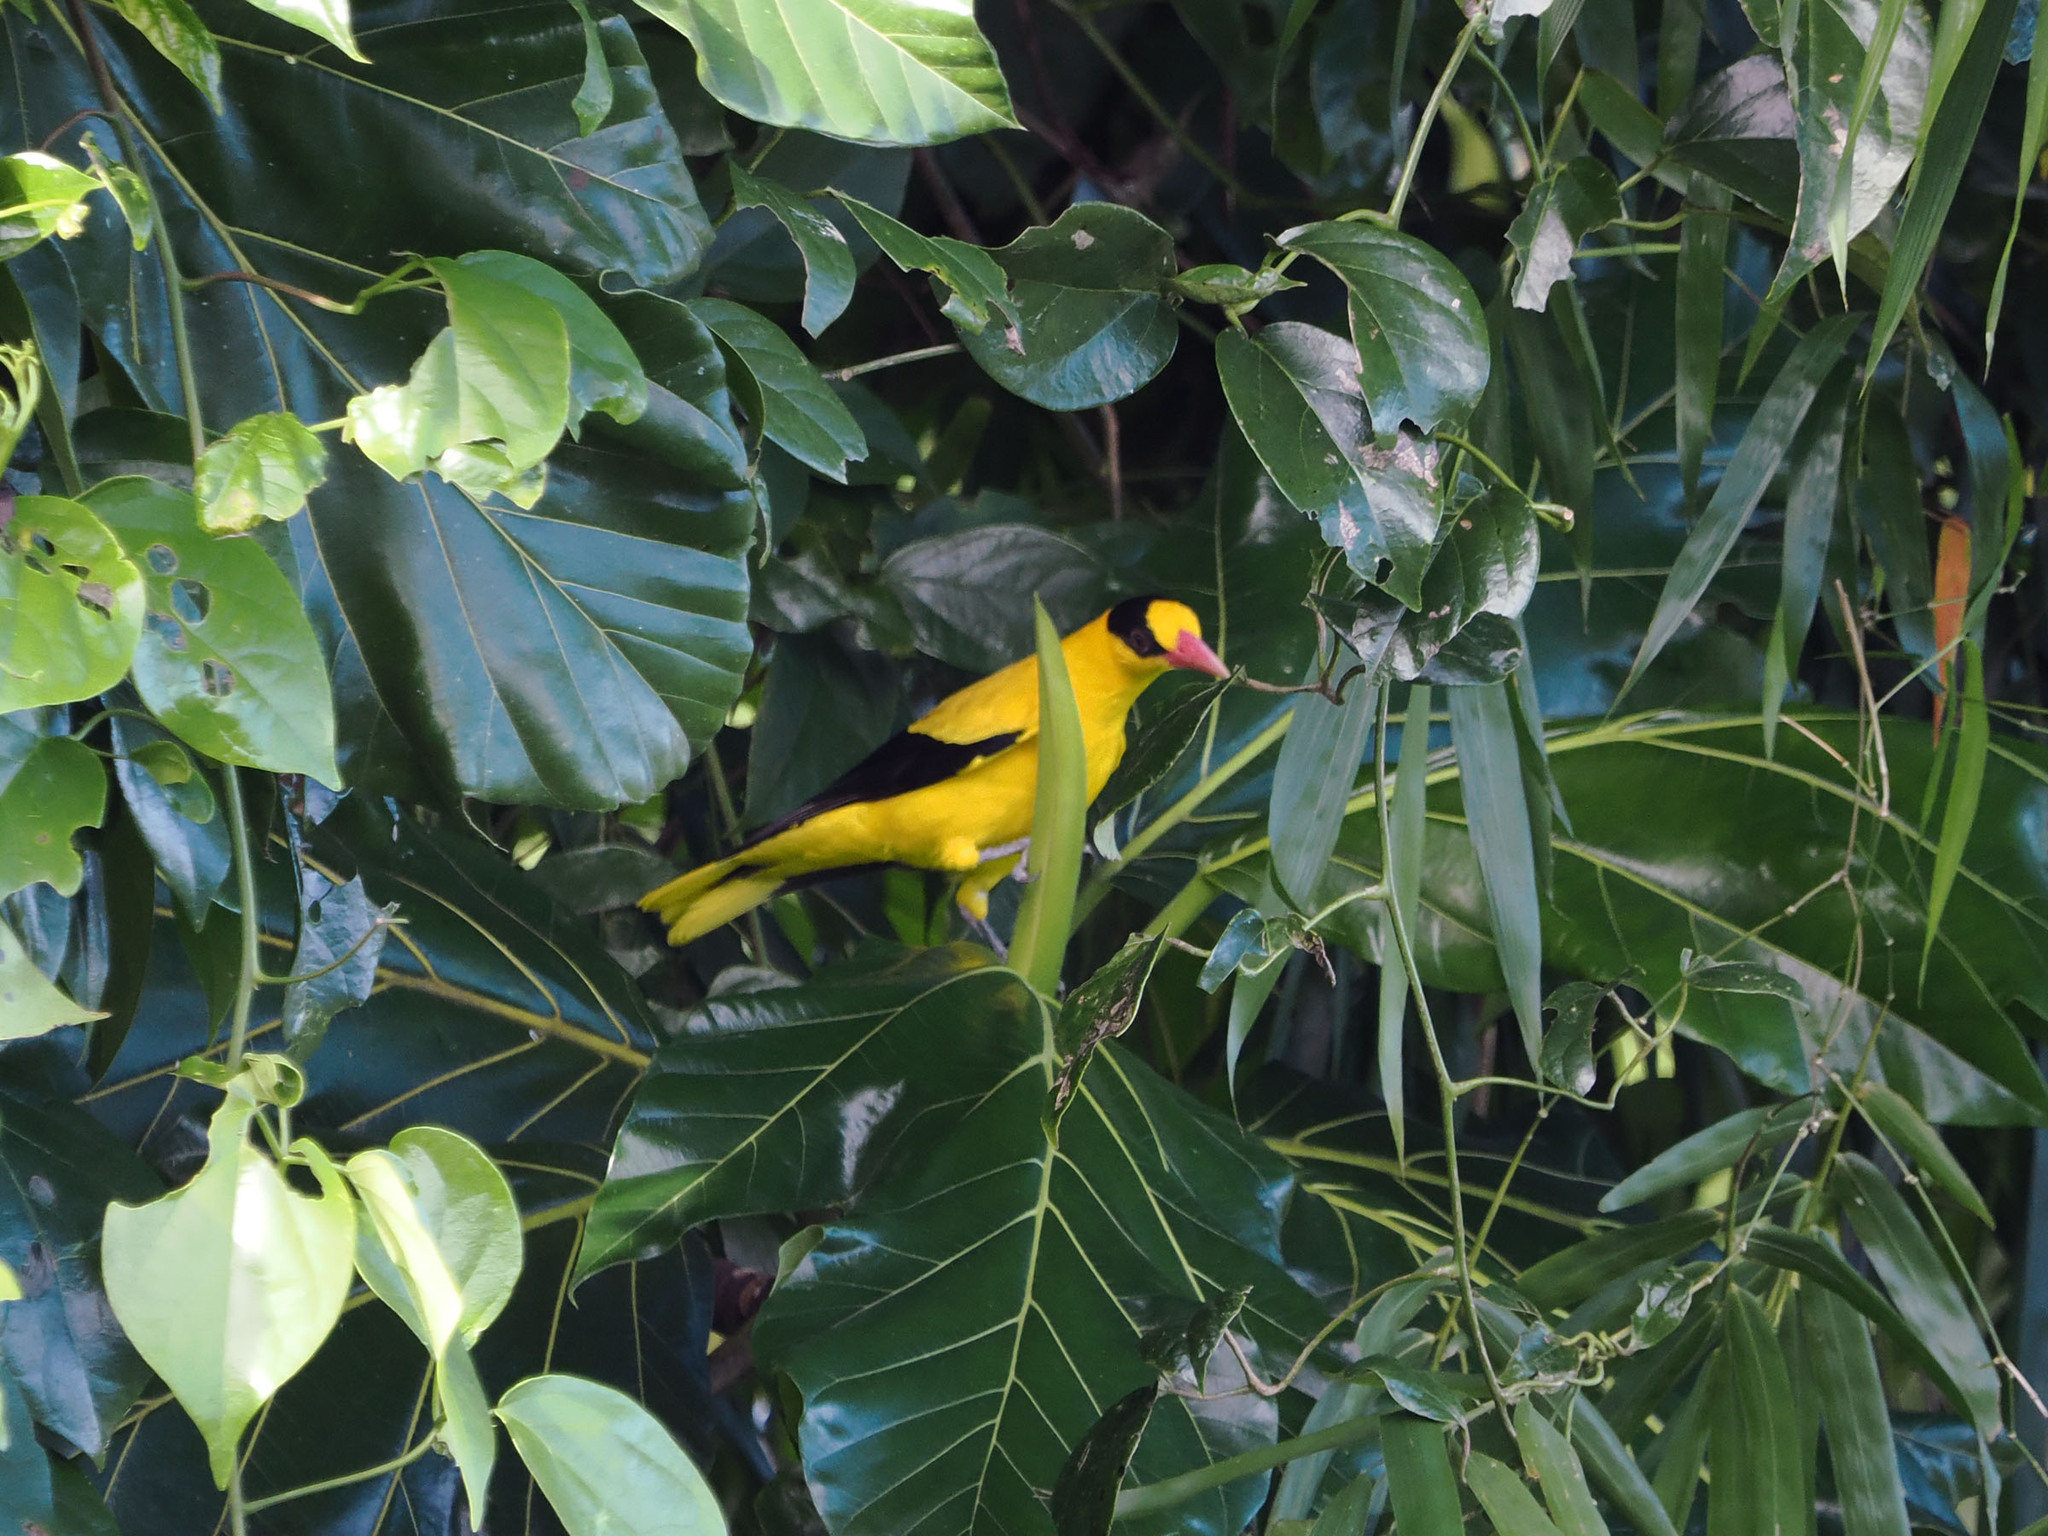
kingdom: Animalia
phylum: Chordata
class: Aves
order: Passeriformes
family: Oriolidae
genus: Oriolus
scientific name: Oriolus chinensis
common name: Black-naped oriole
